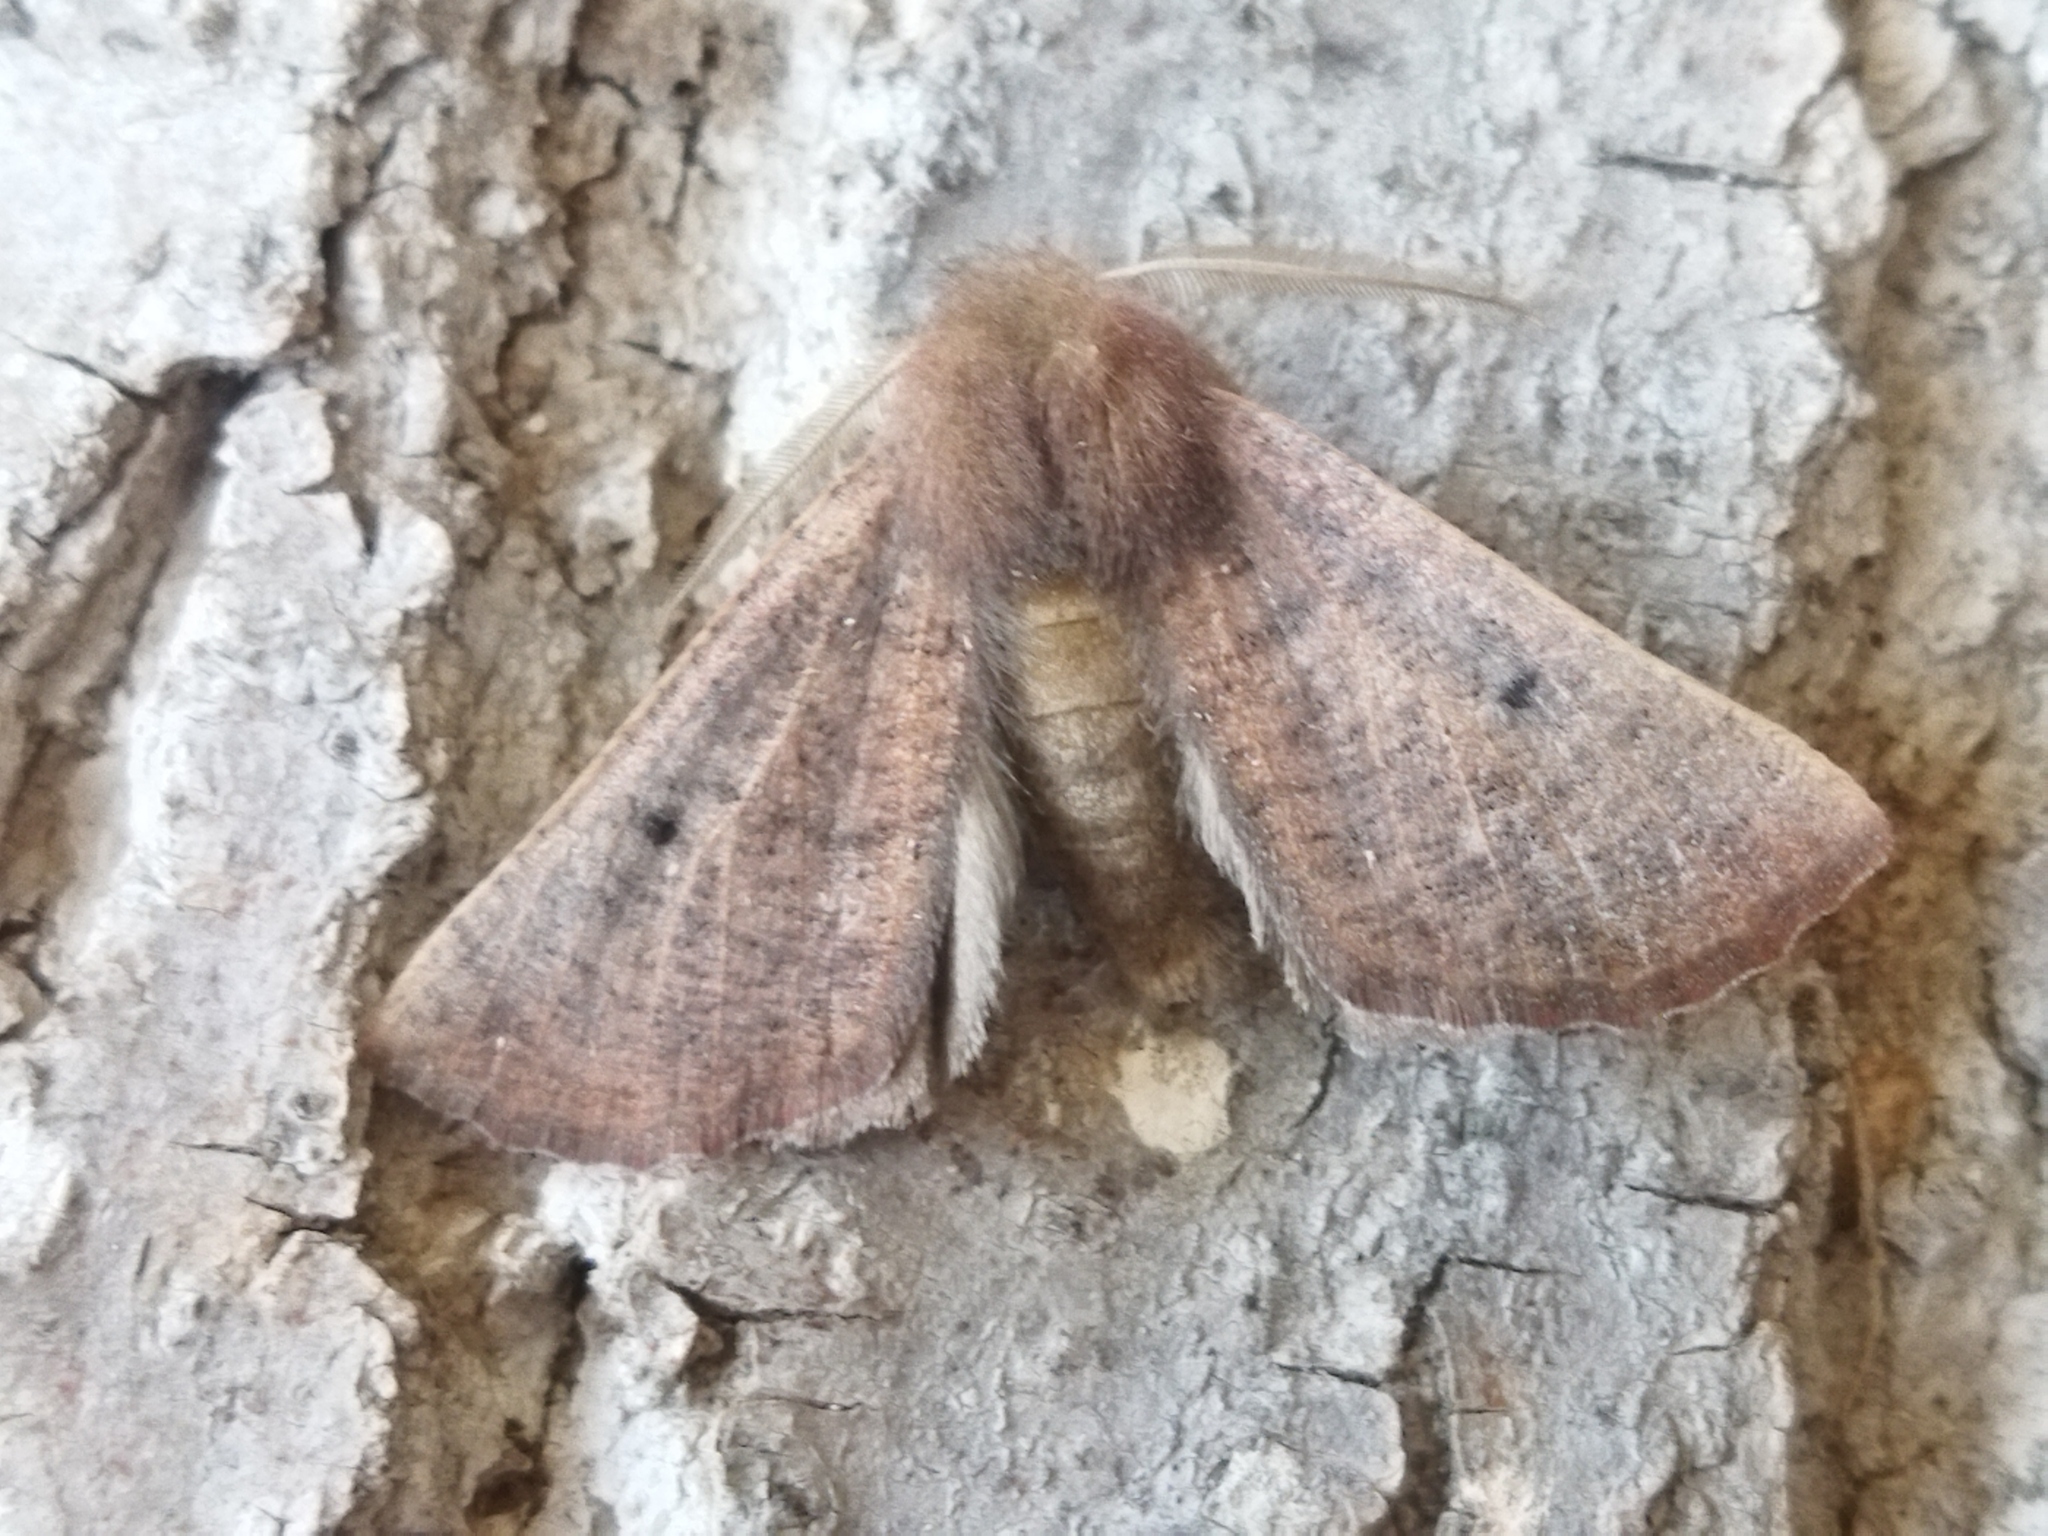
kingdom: Animalia
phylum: Arthropoda
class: Insecta
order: Lepidoptera
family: Geometridae
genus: Dasycorsa
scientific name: Dasycorsa modesta
